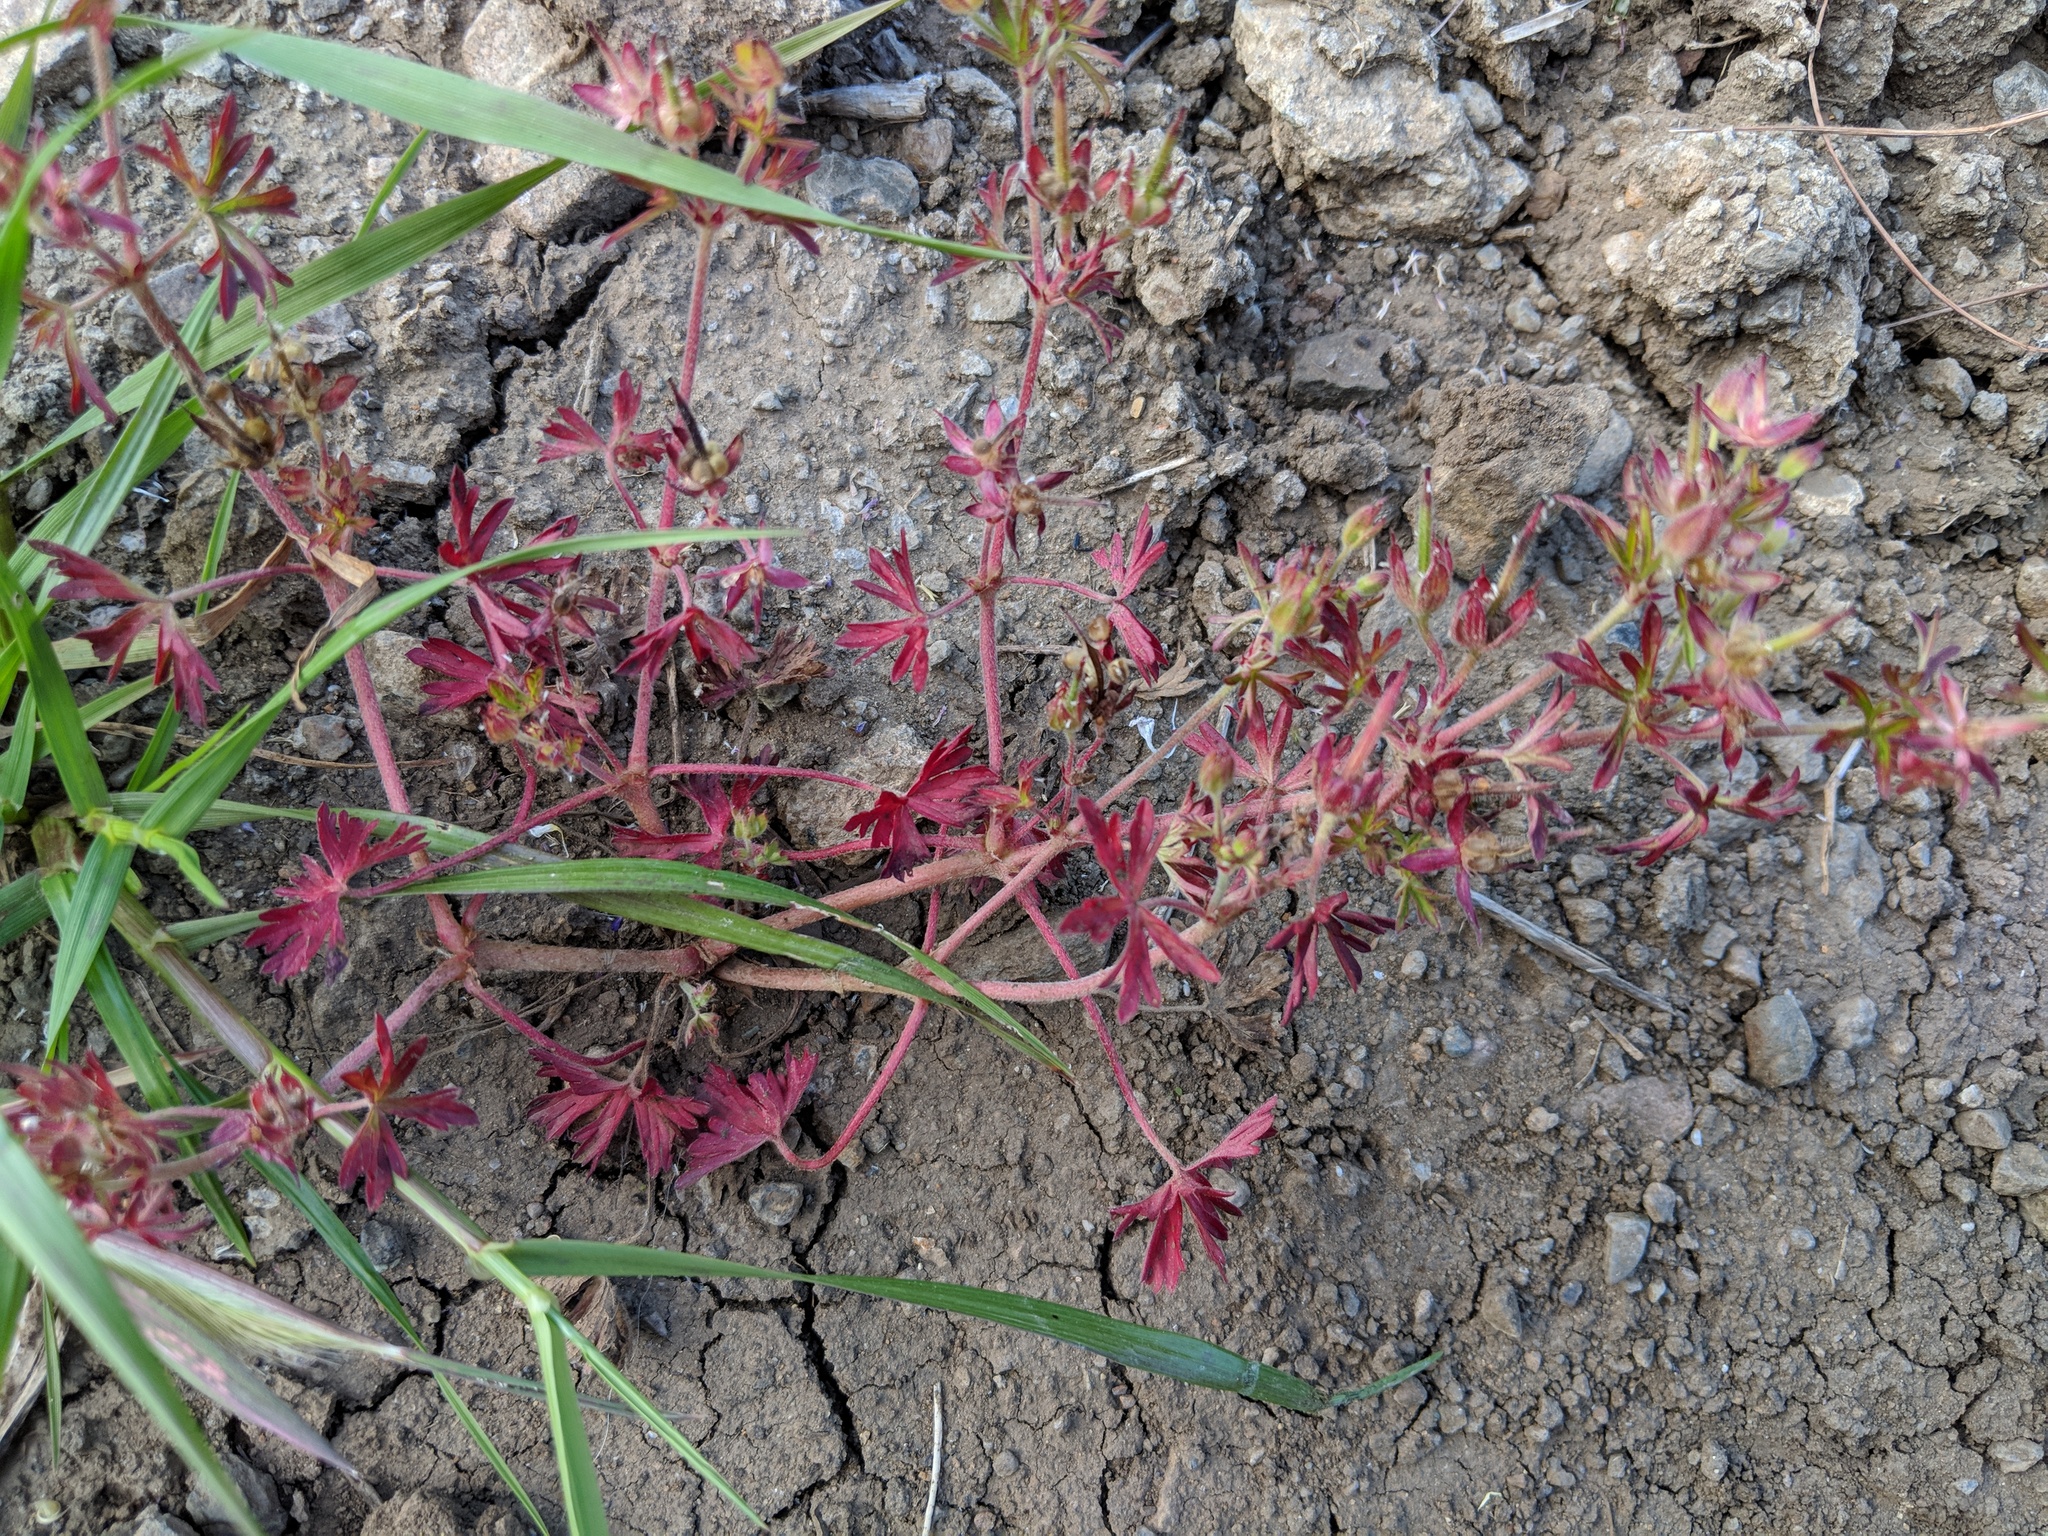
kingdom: Plantae
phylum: Tracheophyta
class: Magnoliopsida
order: Geraniales
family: Geraniaceae
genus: Geranium
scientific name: Geranium dissectum
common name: Cut-leaved crane's-bill
